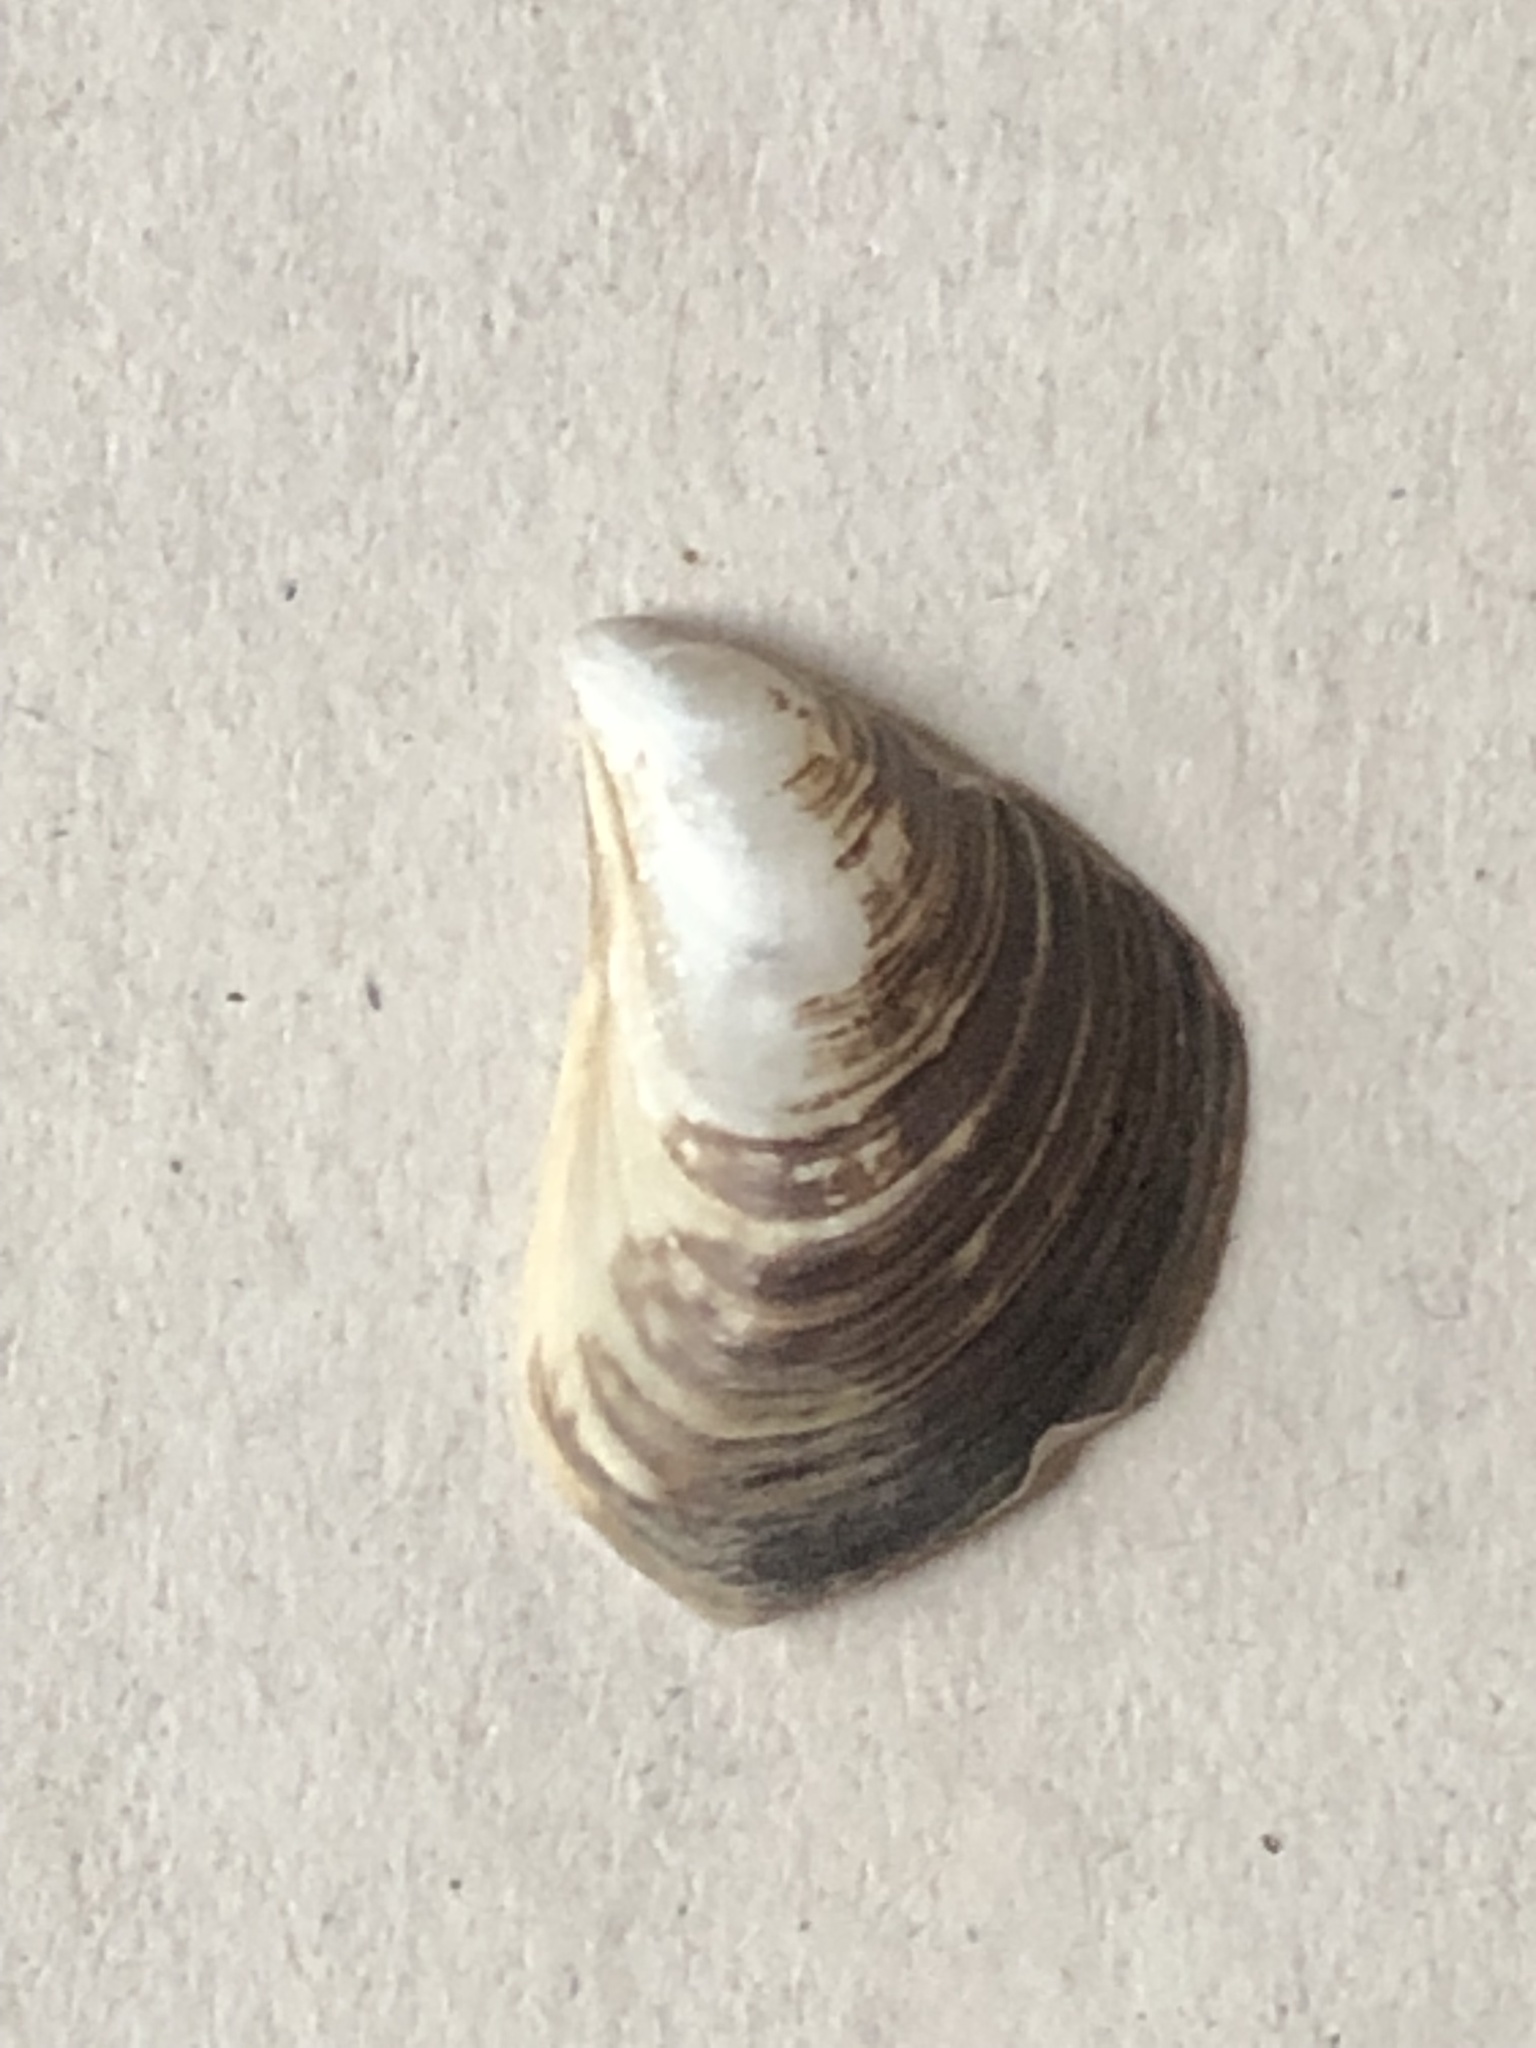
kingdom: Animalia
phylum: Mollusca
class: Bivalvia
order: Myida
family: Dreissenidae
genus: Dreissena
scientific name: Dreissena bugensis
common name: Quagga mussel
